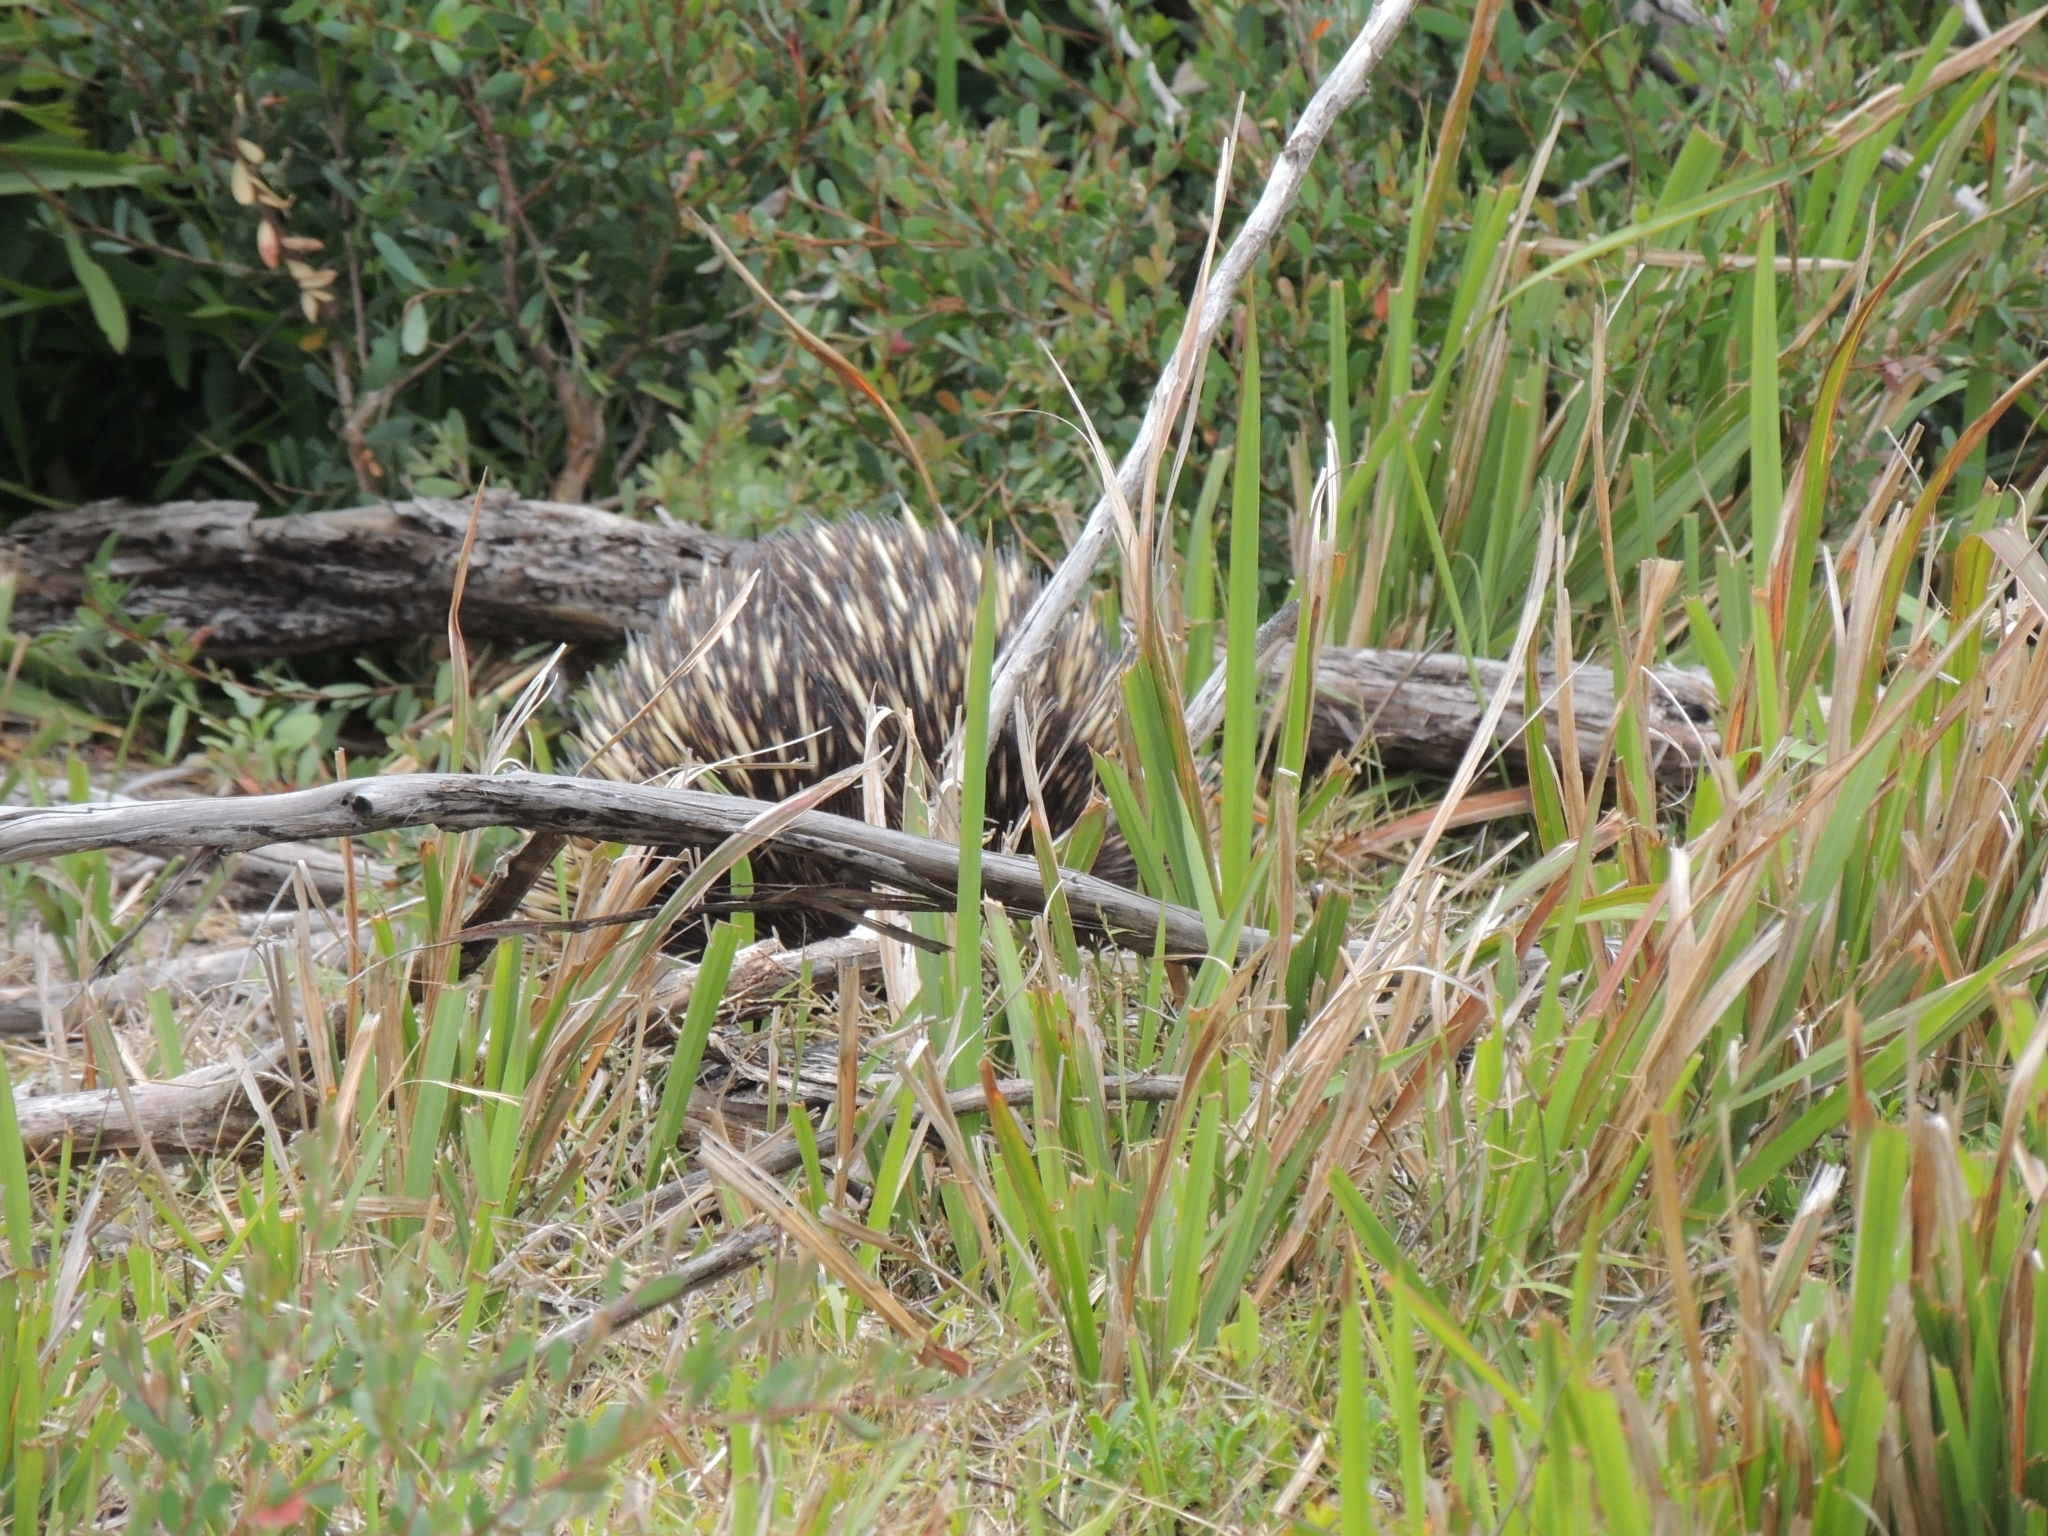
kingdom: Animalia
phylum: Chordata
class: Mammalia
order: Monotremata
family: Tachyglossidae
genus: Tachyglossus
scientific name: Tachyglossus aculeatus
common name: Short-beaked echidna
